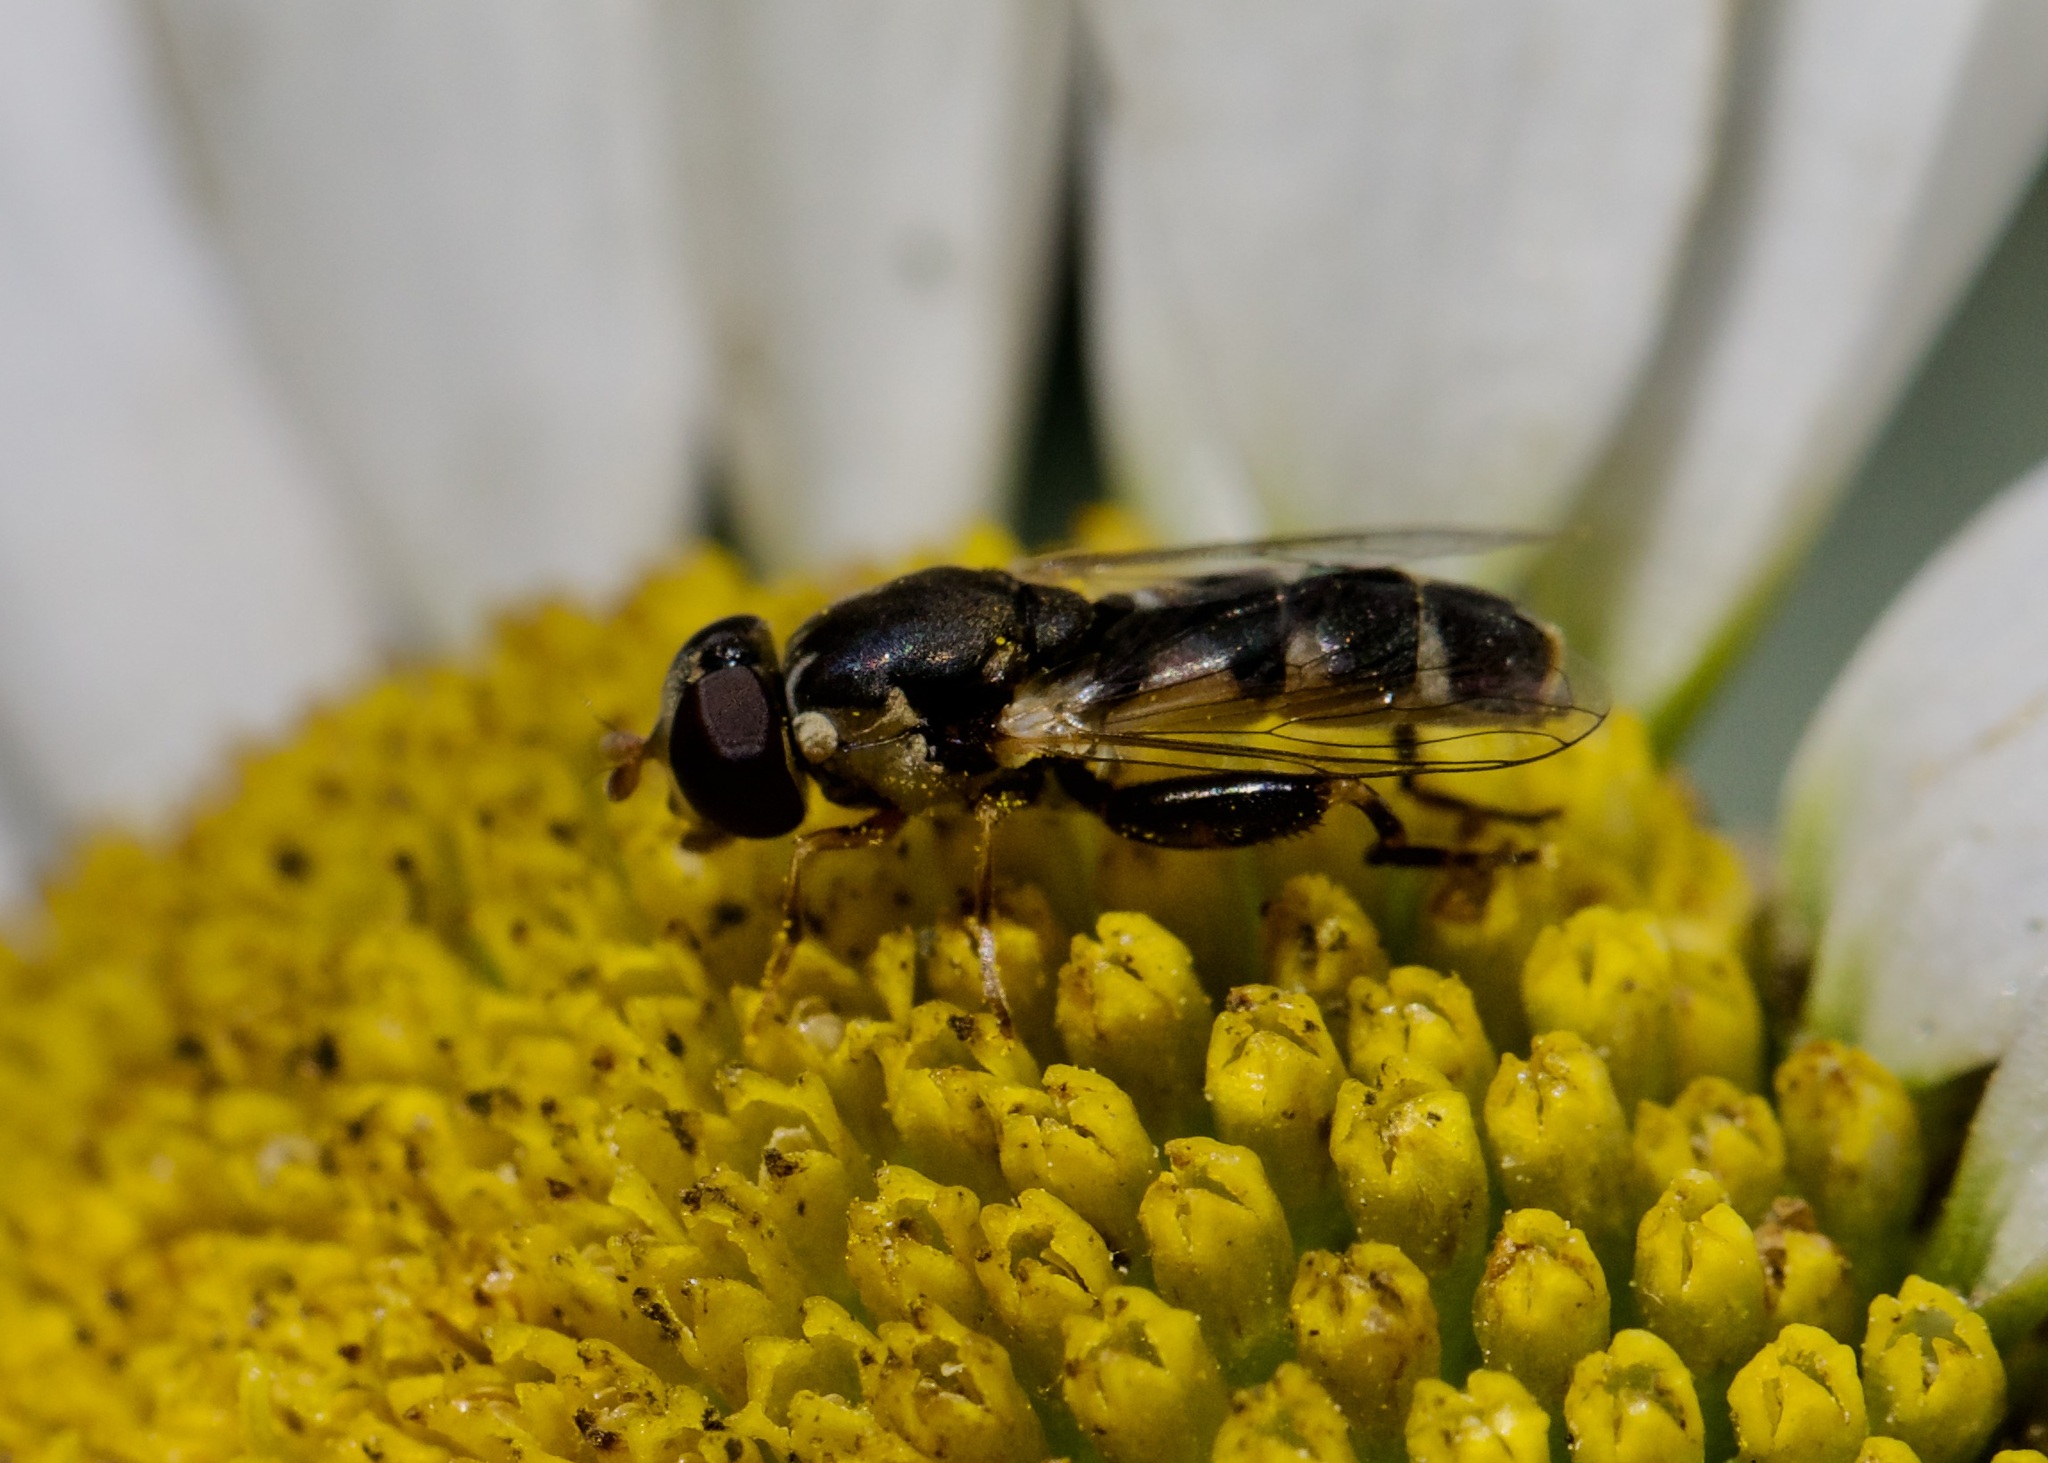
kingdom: Animalia
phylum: Arthropoda
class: Insecta
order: Diptera
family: Syrphidae
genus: Syritta
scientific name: Syritta pipiens
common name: Hover fly
